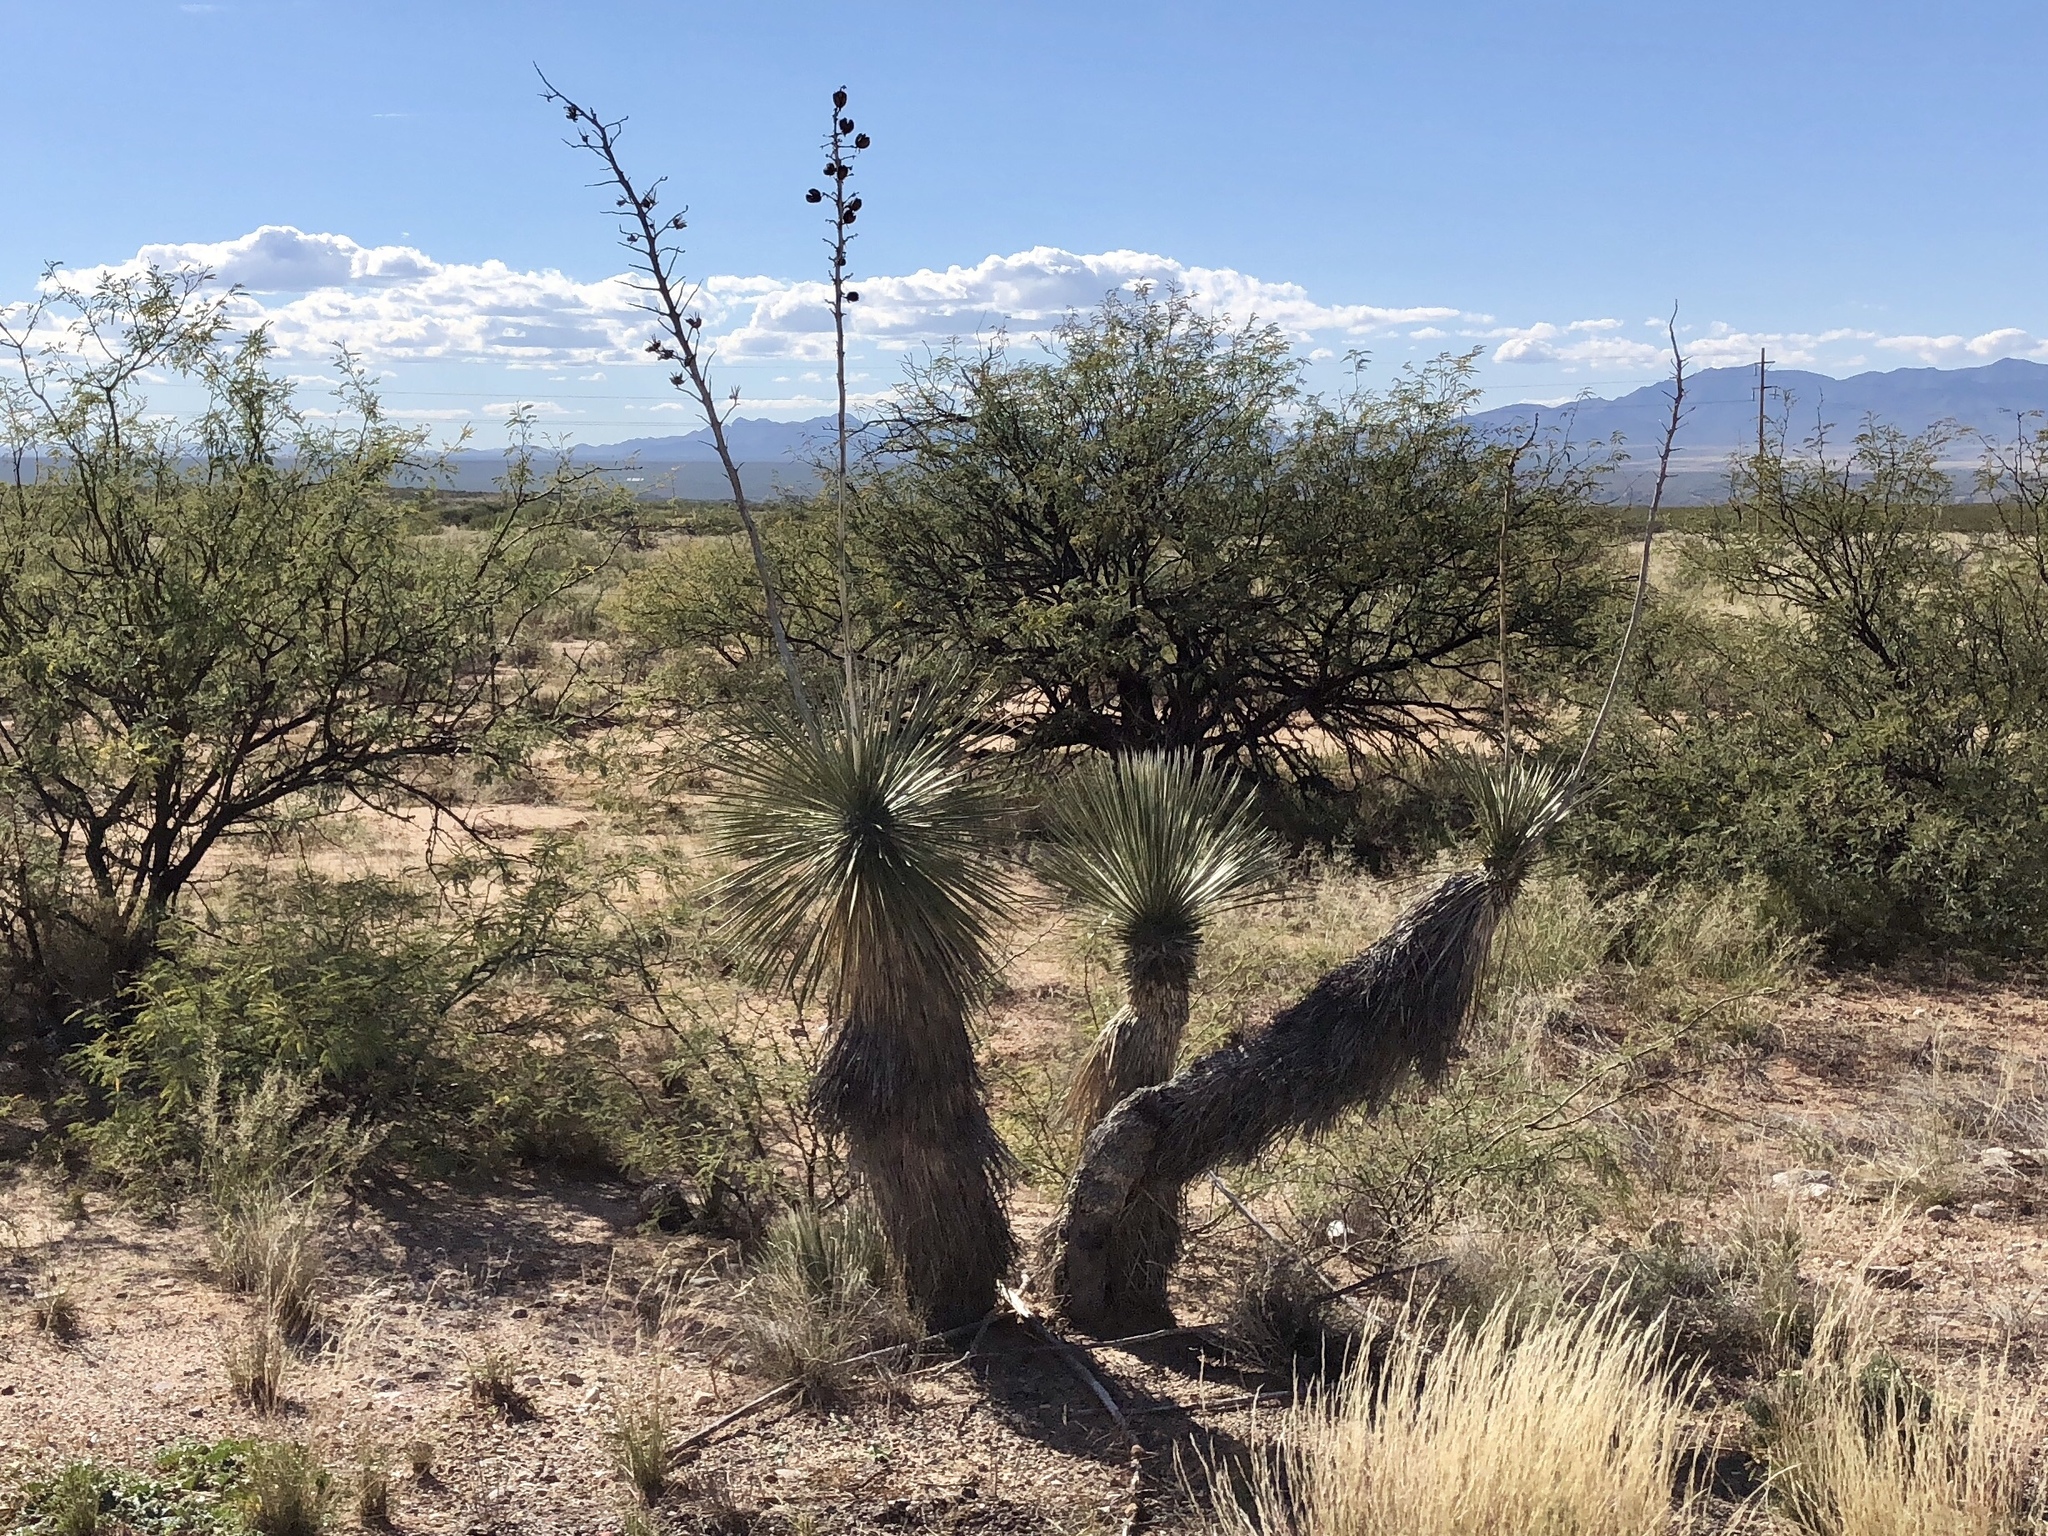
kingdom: Plantae
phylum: Tracheophyta
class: Liliopsida
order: Asparagales
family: Asparagaceae
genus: Yucca
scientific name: Yucca elata
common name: Palmella
